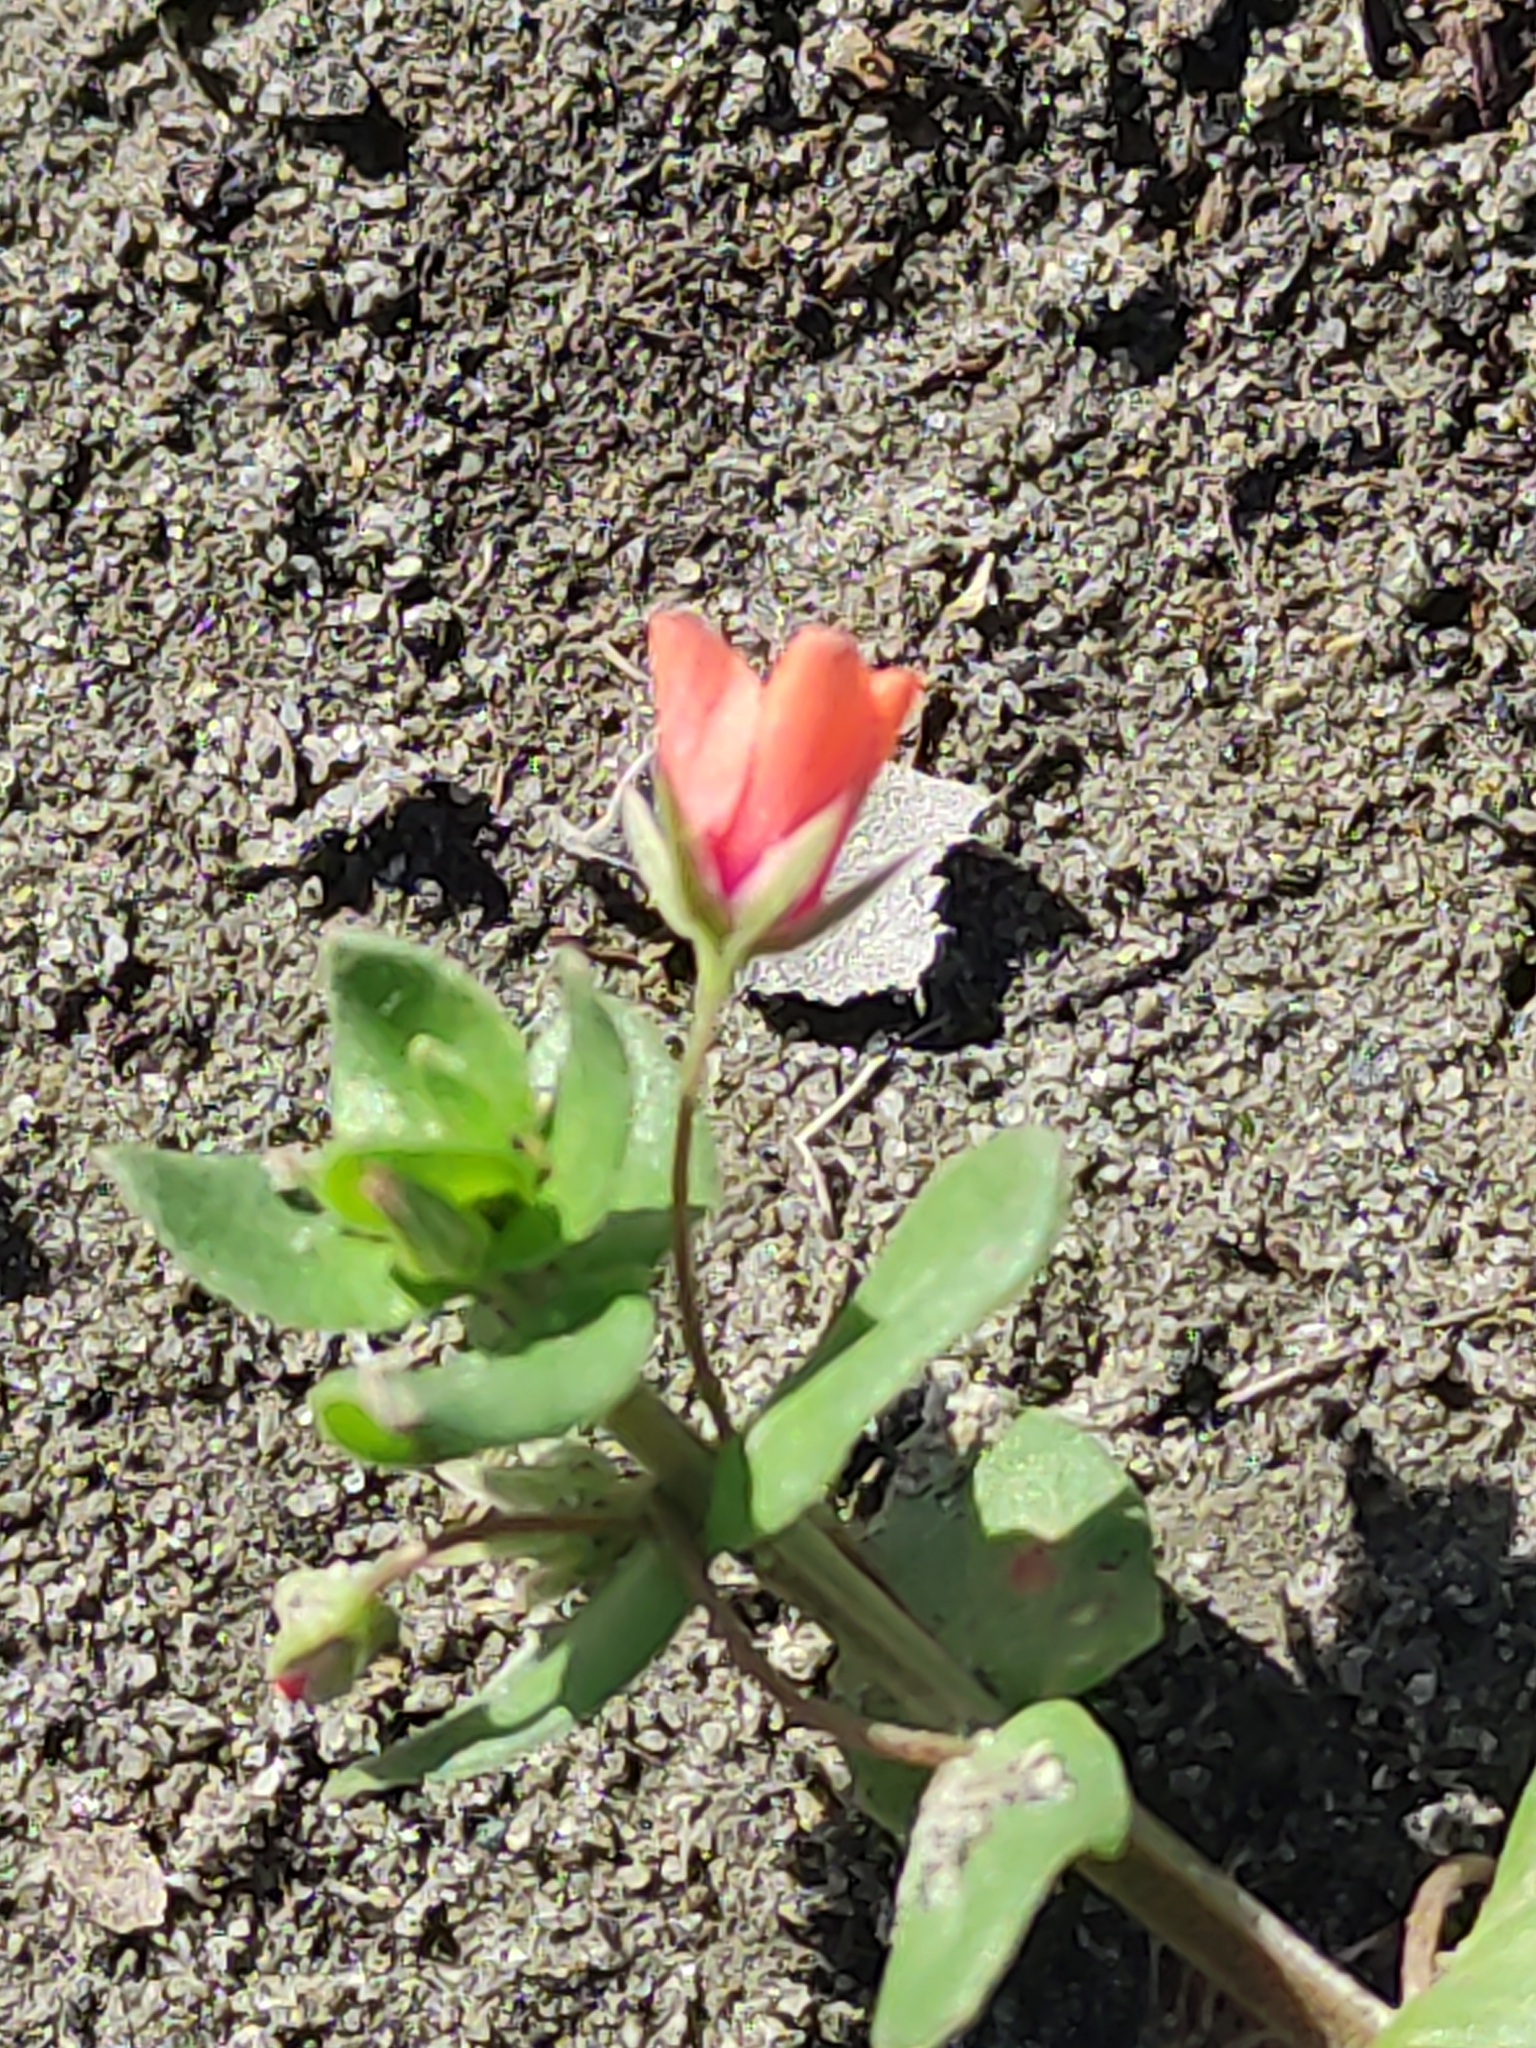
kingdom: Plantae
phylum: Tracheophyta
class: Magnoliopsida
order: Ericales
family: Primulaceae
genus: Lysimachia
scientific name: Lysimachia arvensis
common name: Scarlet pimpernel
